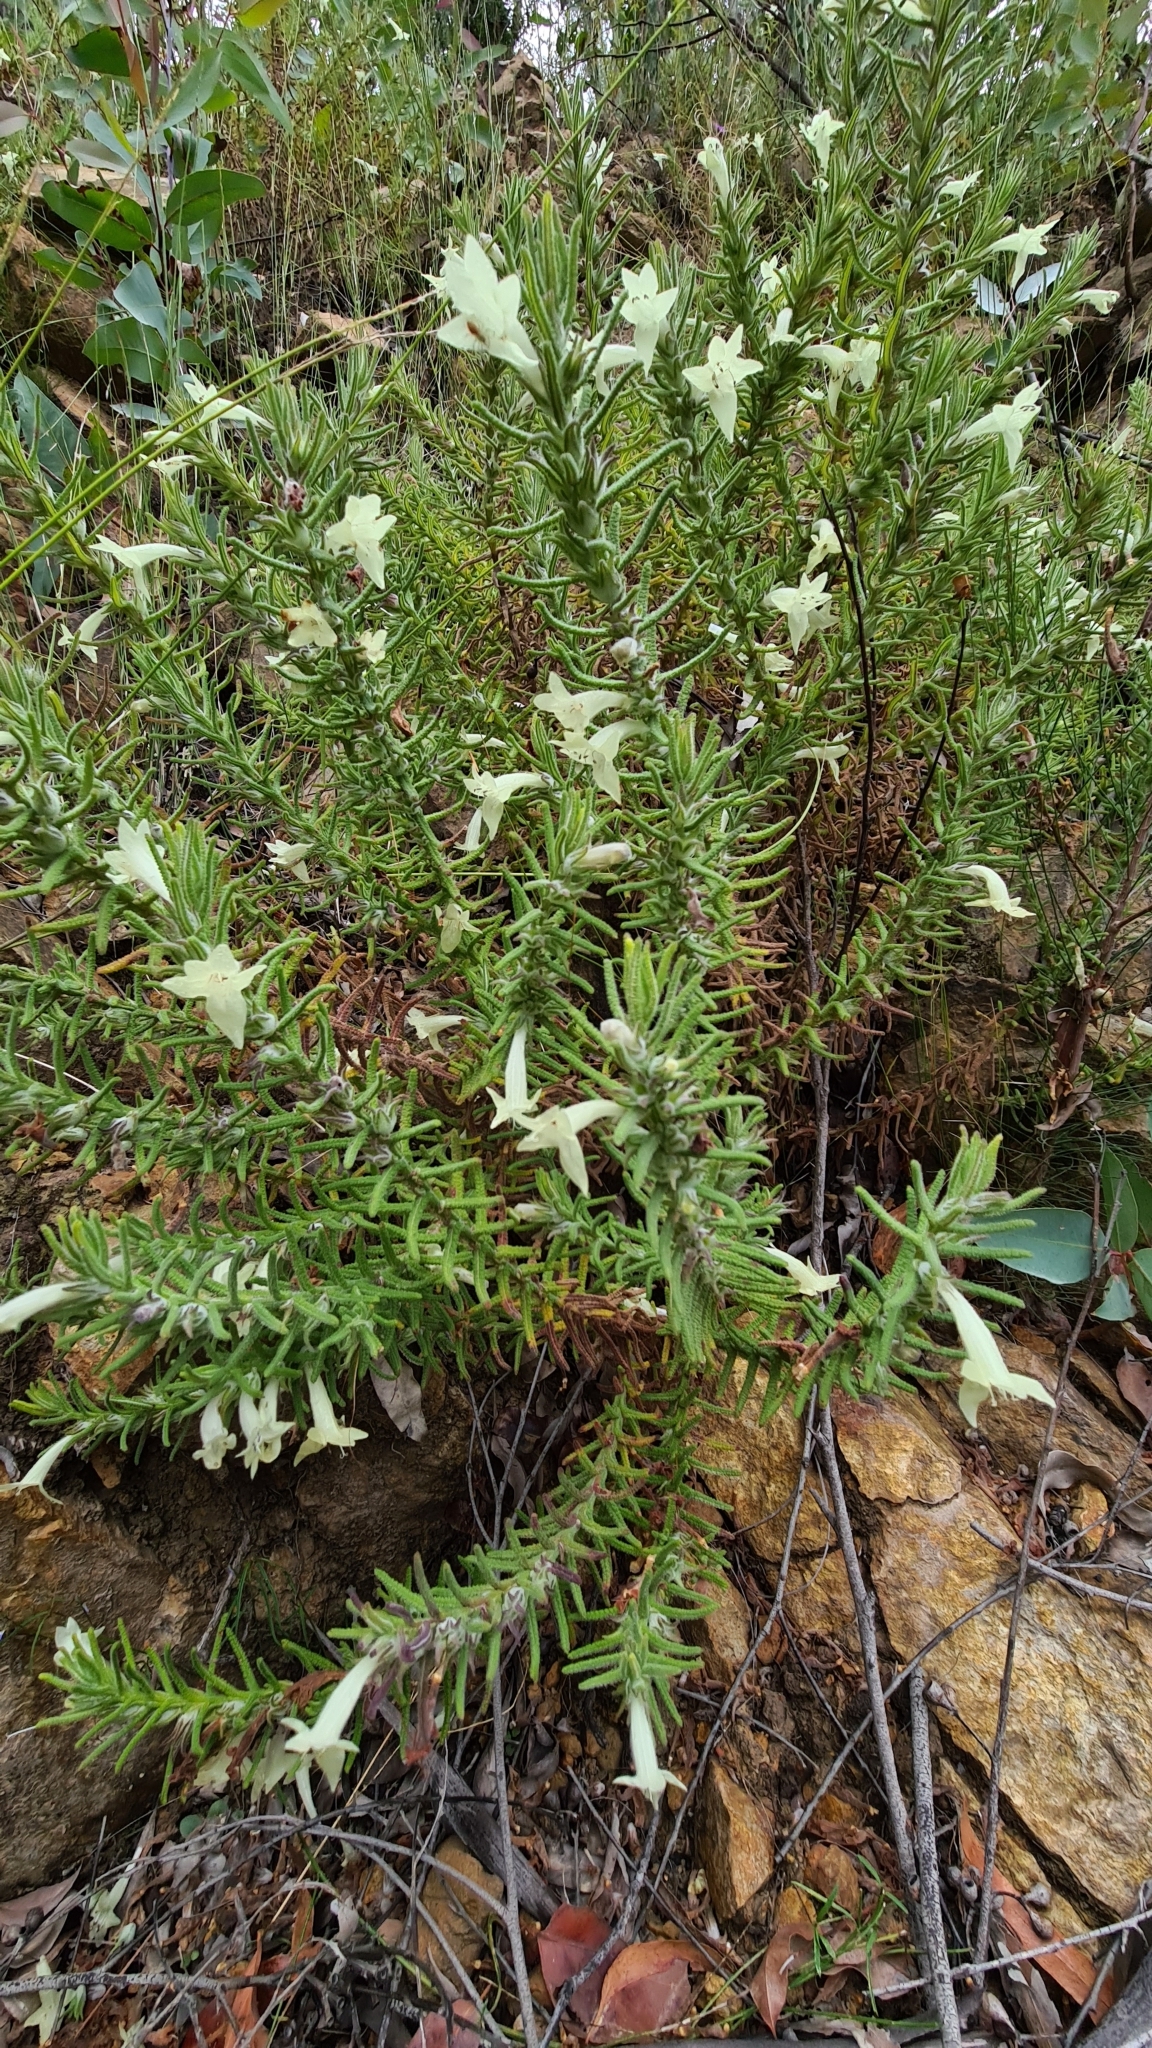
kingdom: Plantae
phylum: Tracheophyta
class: Magnoliopsida
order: Lamiales
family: Lamiaceae
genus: Chloanthes
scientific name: Chloanthes stoechadis
